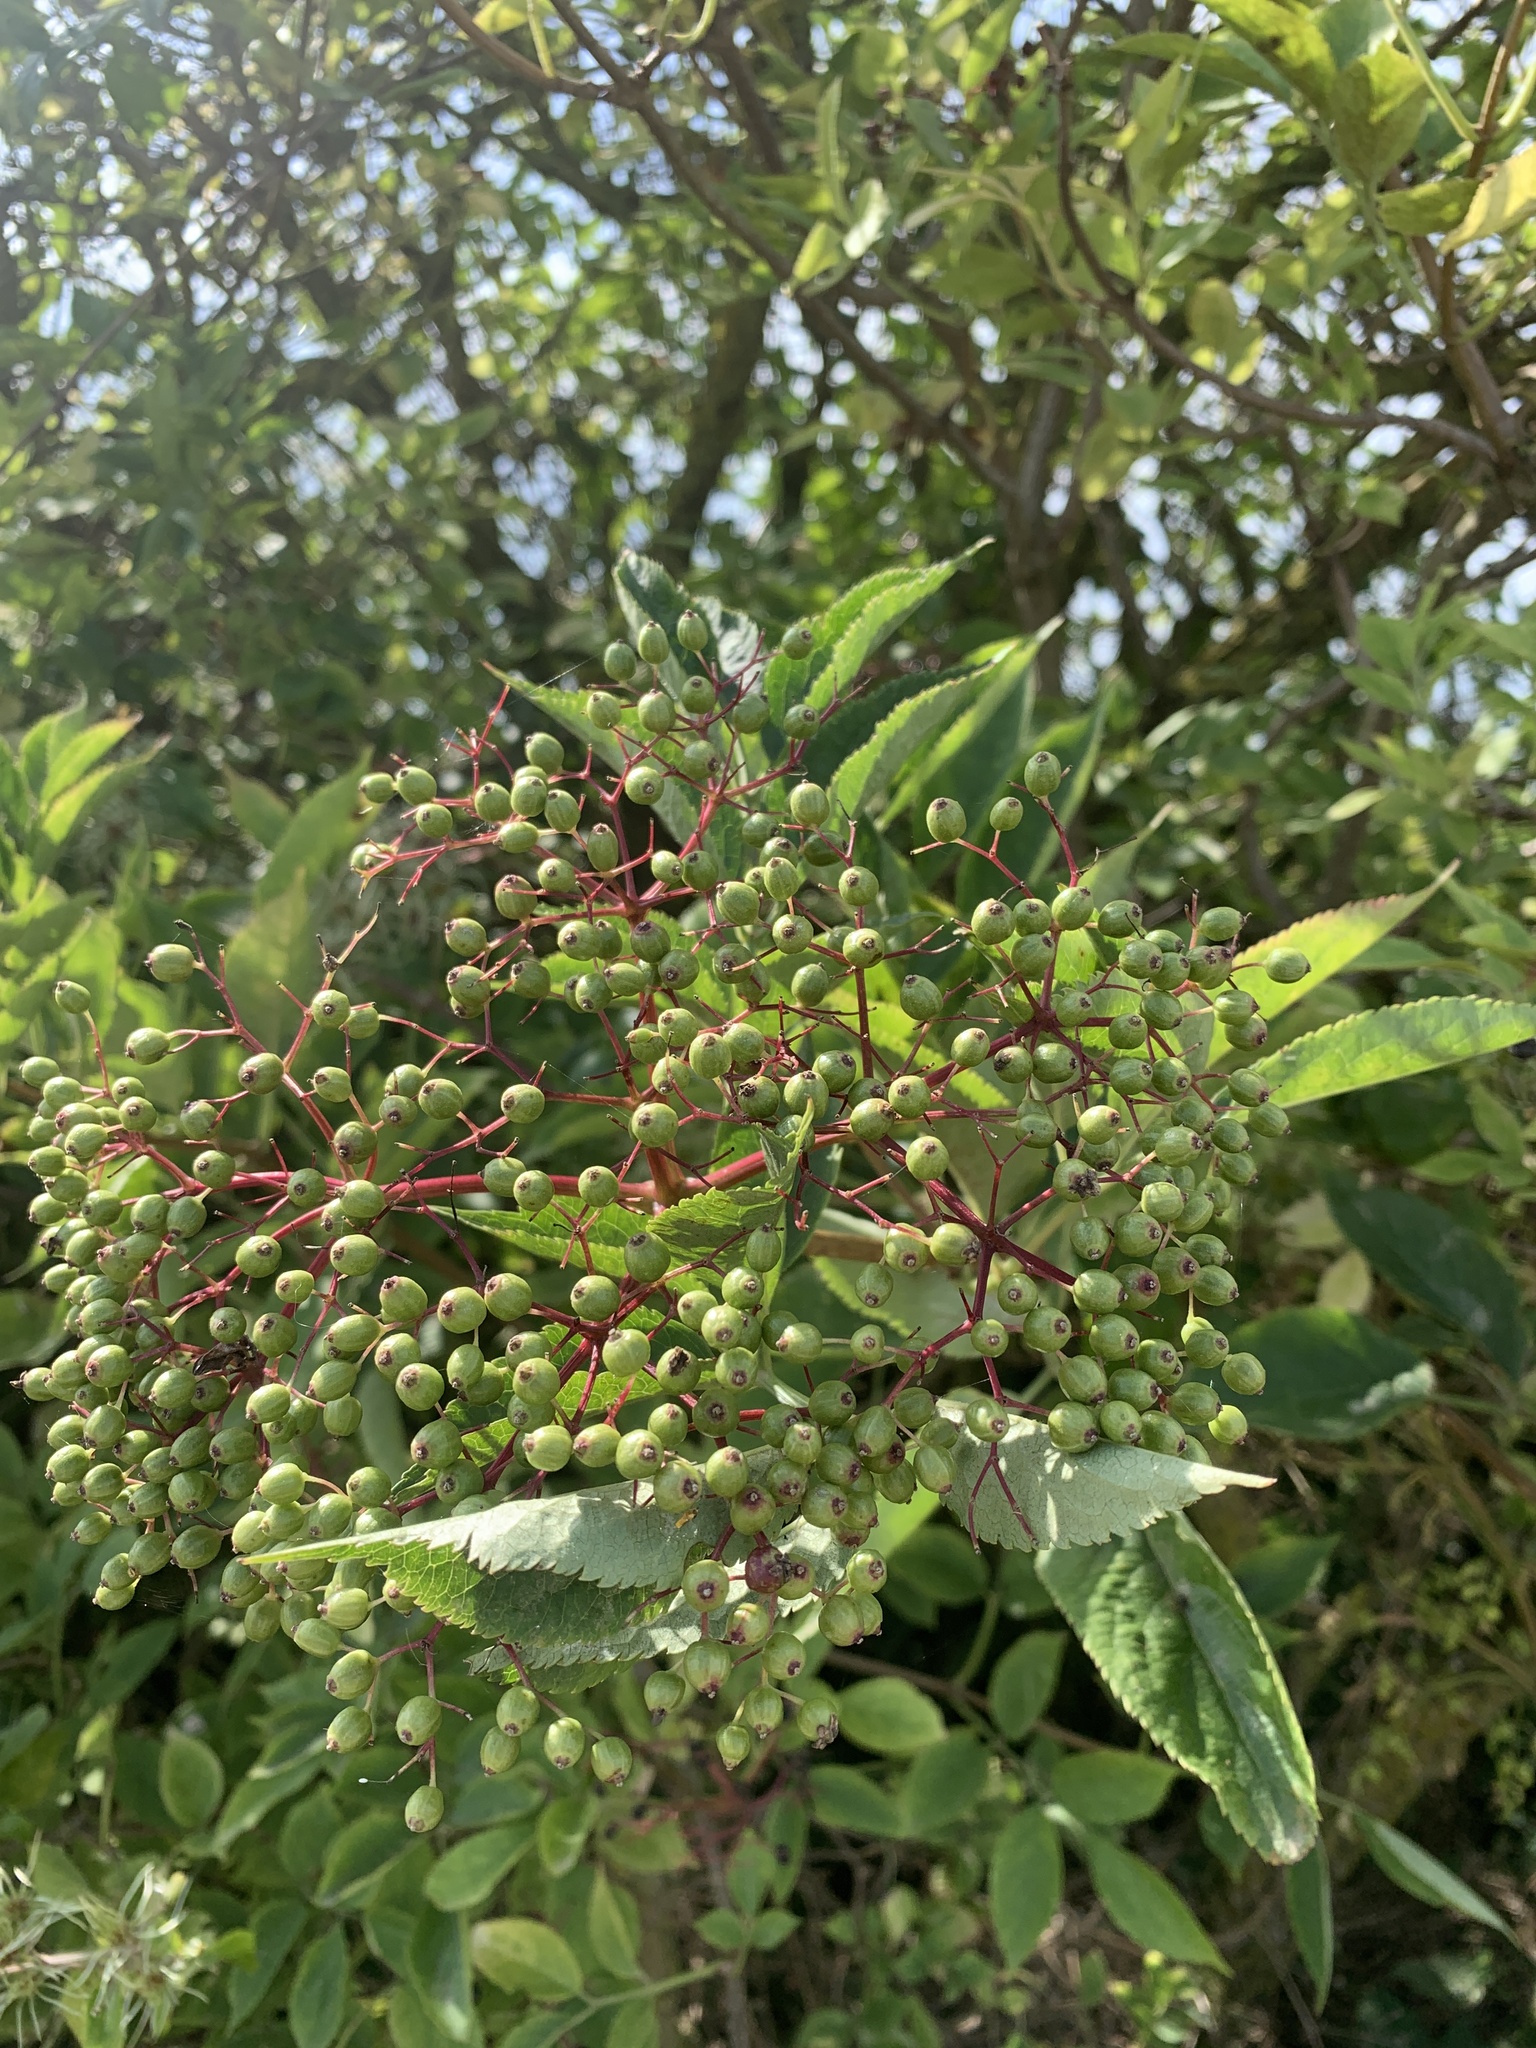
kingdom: Plantae
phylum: Tracheophyta
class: Magnoliopsida
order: Dipsacales
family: Viburnaceae
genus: Sambucus
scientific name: Sambucus nigra
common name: Elder
